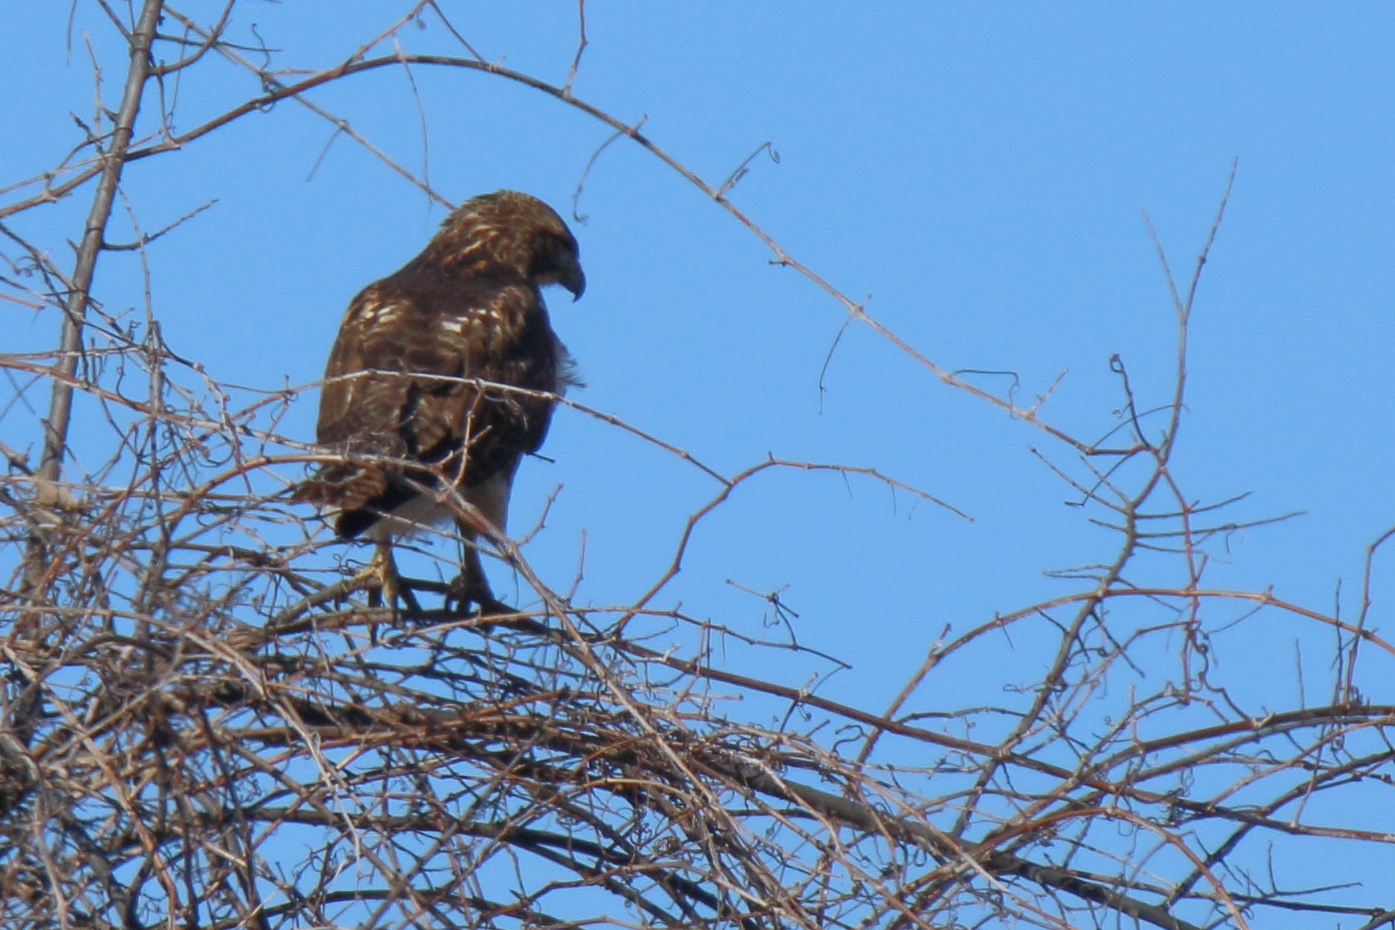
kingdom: Animalia
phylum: Chordata
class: Aves
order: Accipitriformes
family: Accipitridae
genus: Buteo
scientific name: Buteo jamaicensis
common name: Red-tailed hawk
